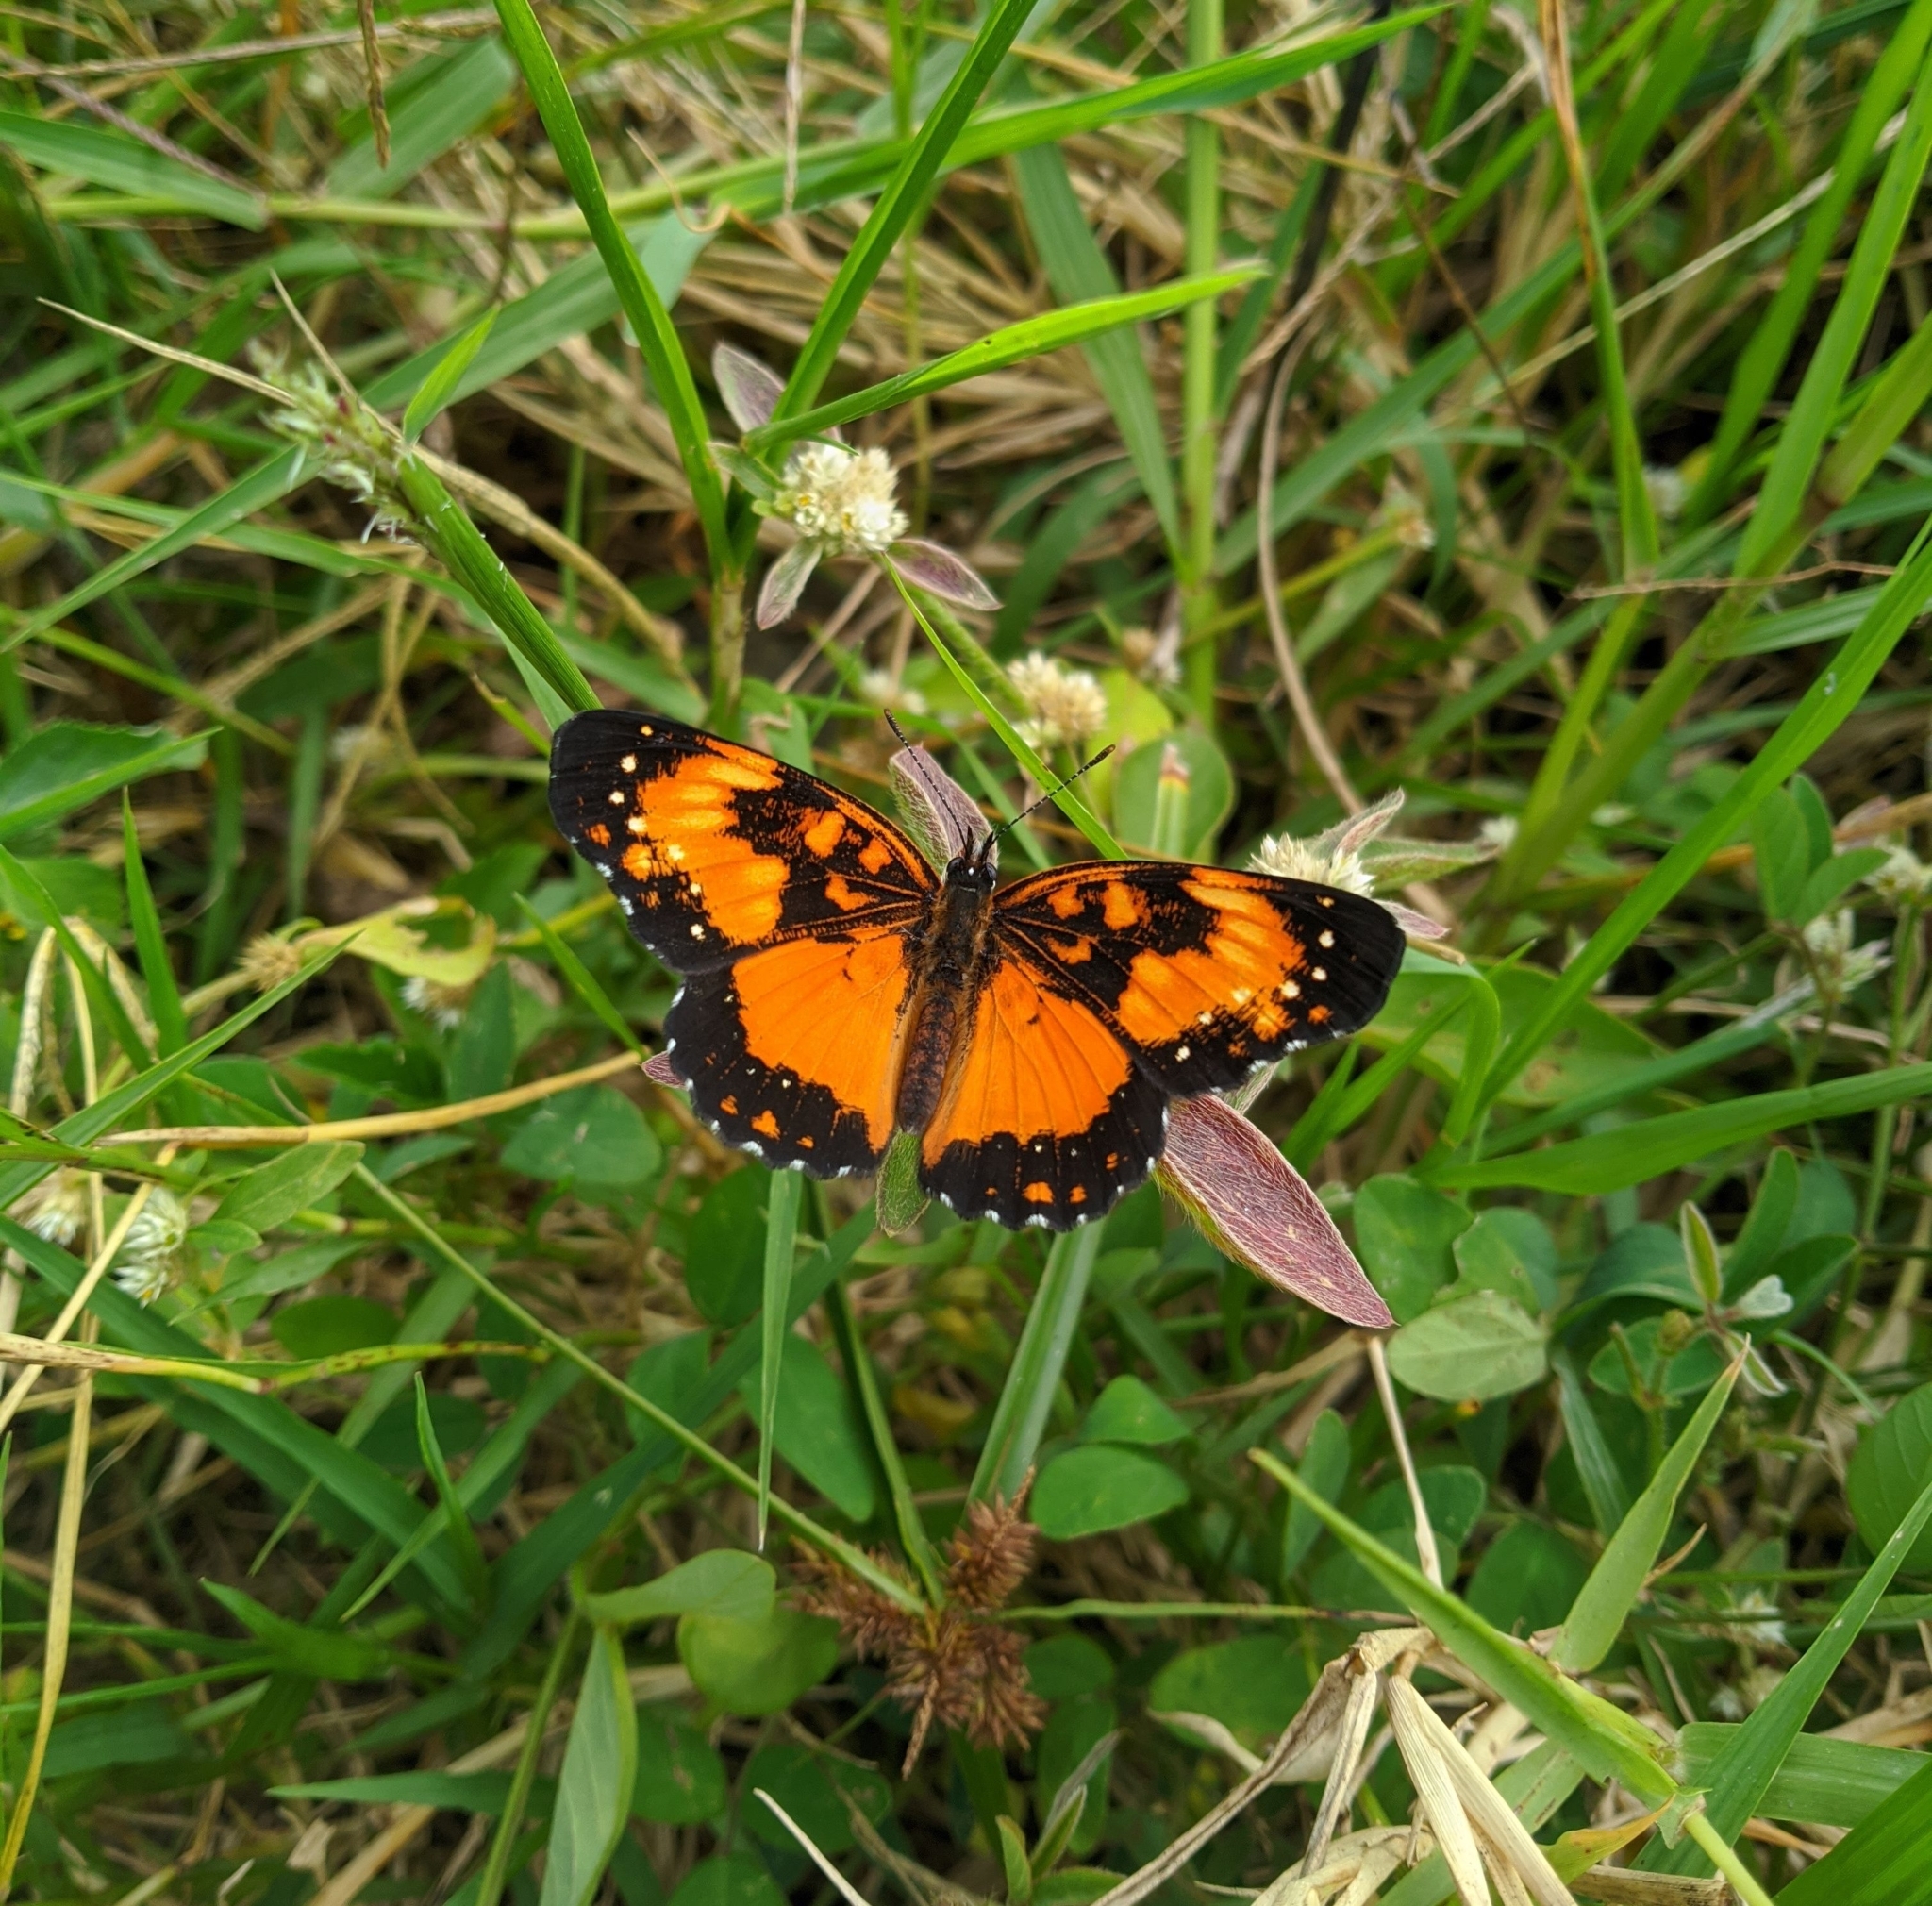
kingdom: Animalia
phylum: Arthropoda
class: Insecta
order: Lepidoptera
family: Nymphalidae
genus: Chlosyne
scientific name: Chlosyne lacinia
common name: Bordered patch
